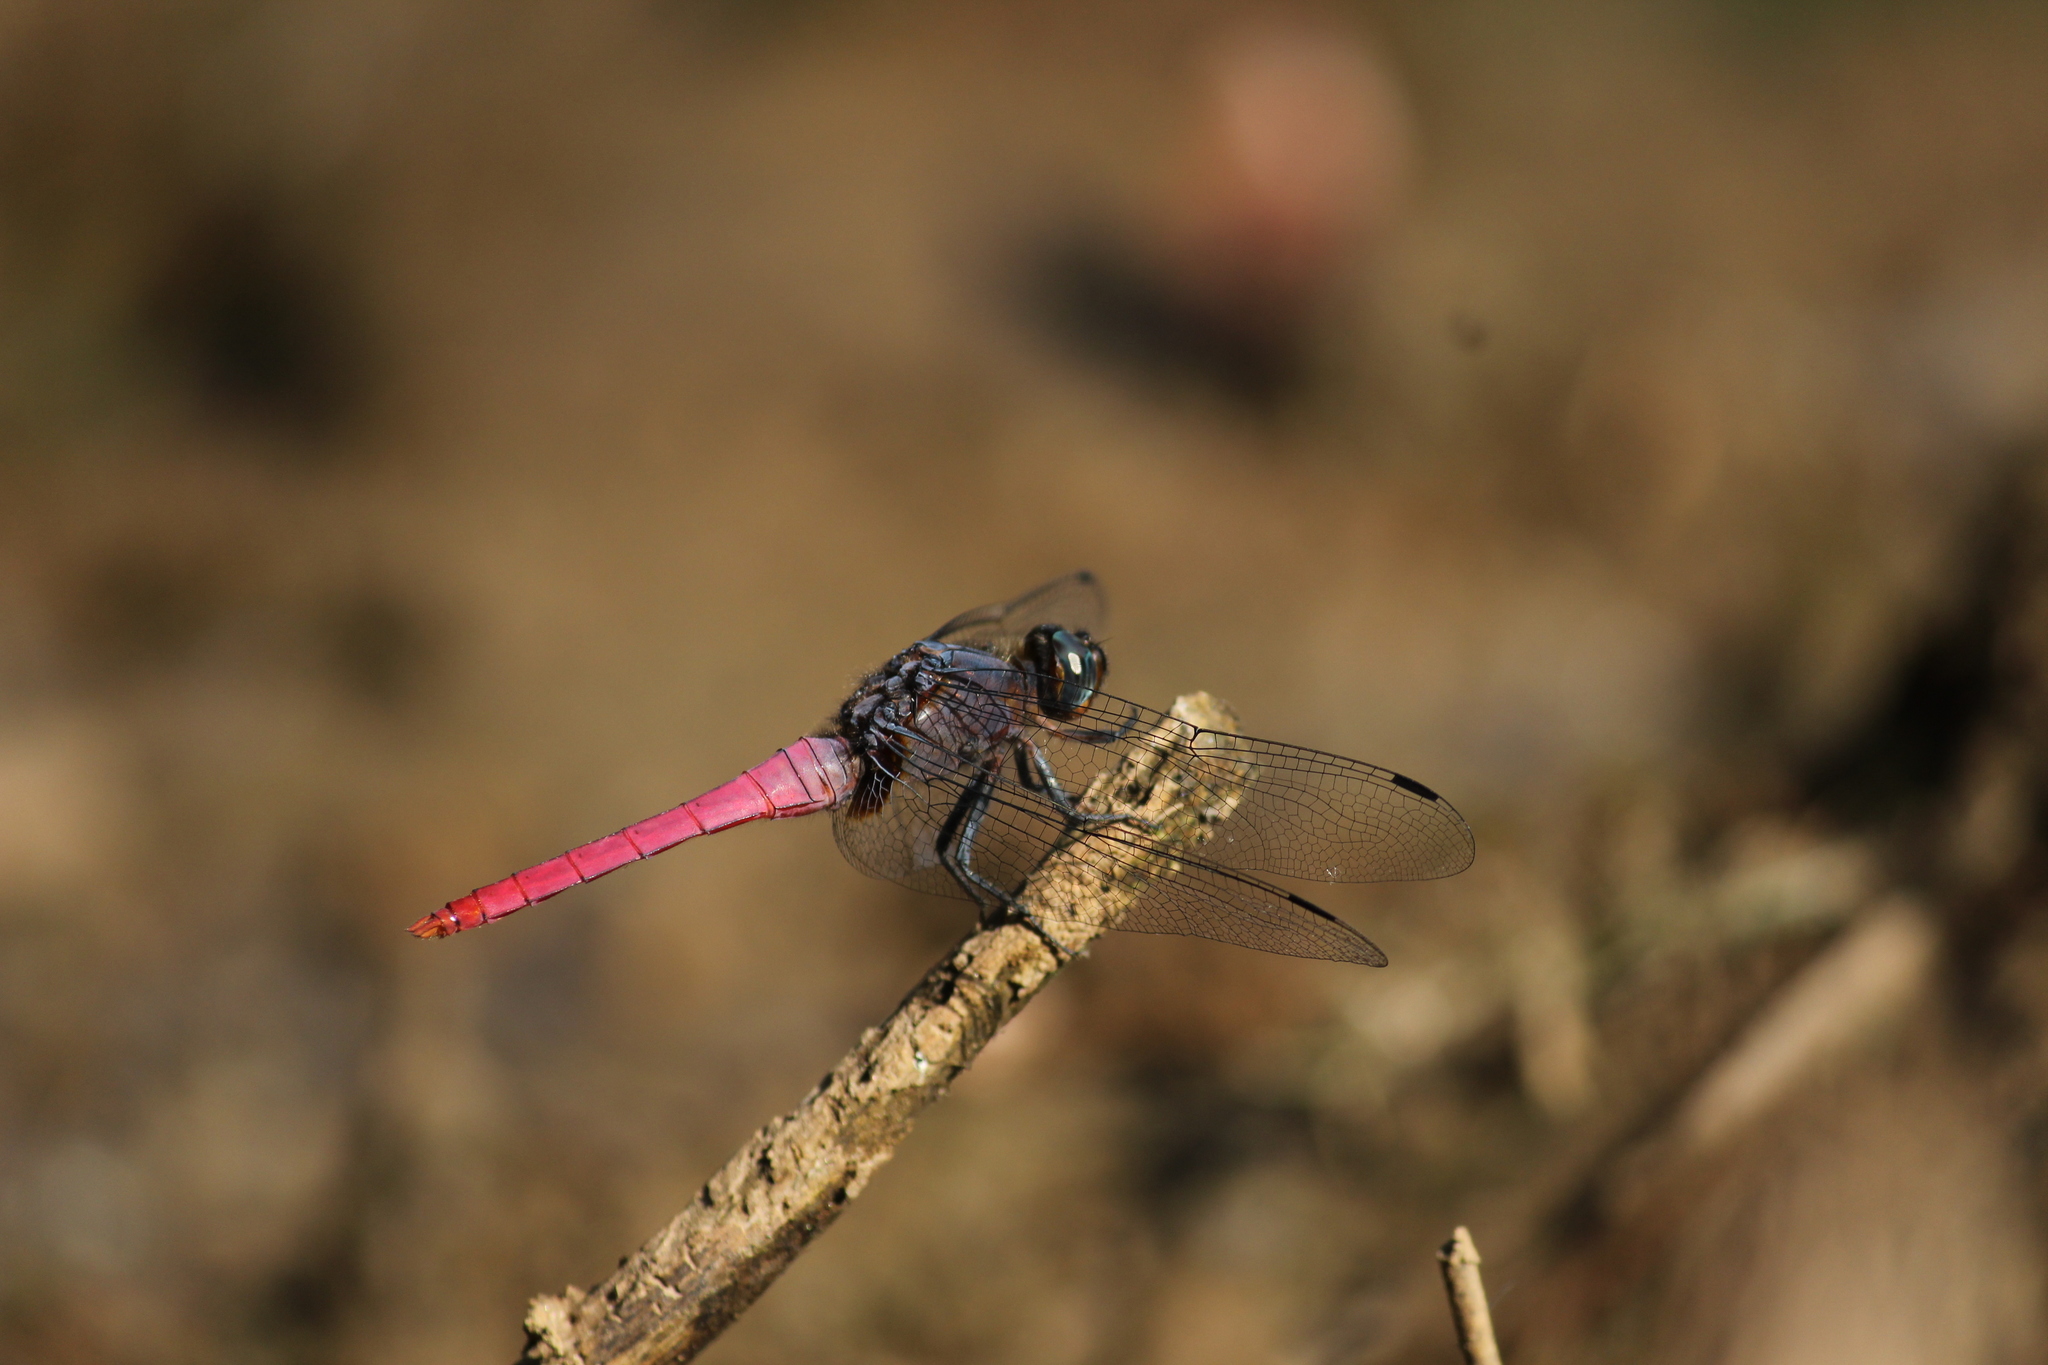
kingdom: Animalia
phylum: Arthropoda
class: Insecta
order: Odonata
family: Libellulidae
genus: Orthetrum
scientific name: Orthetrum pruinosum
